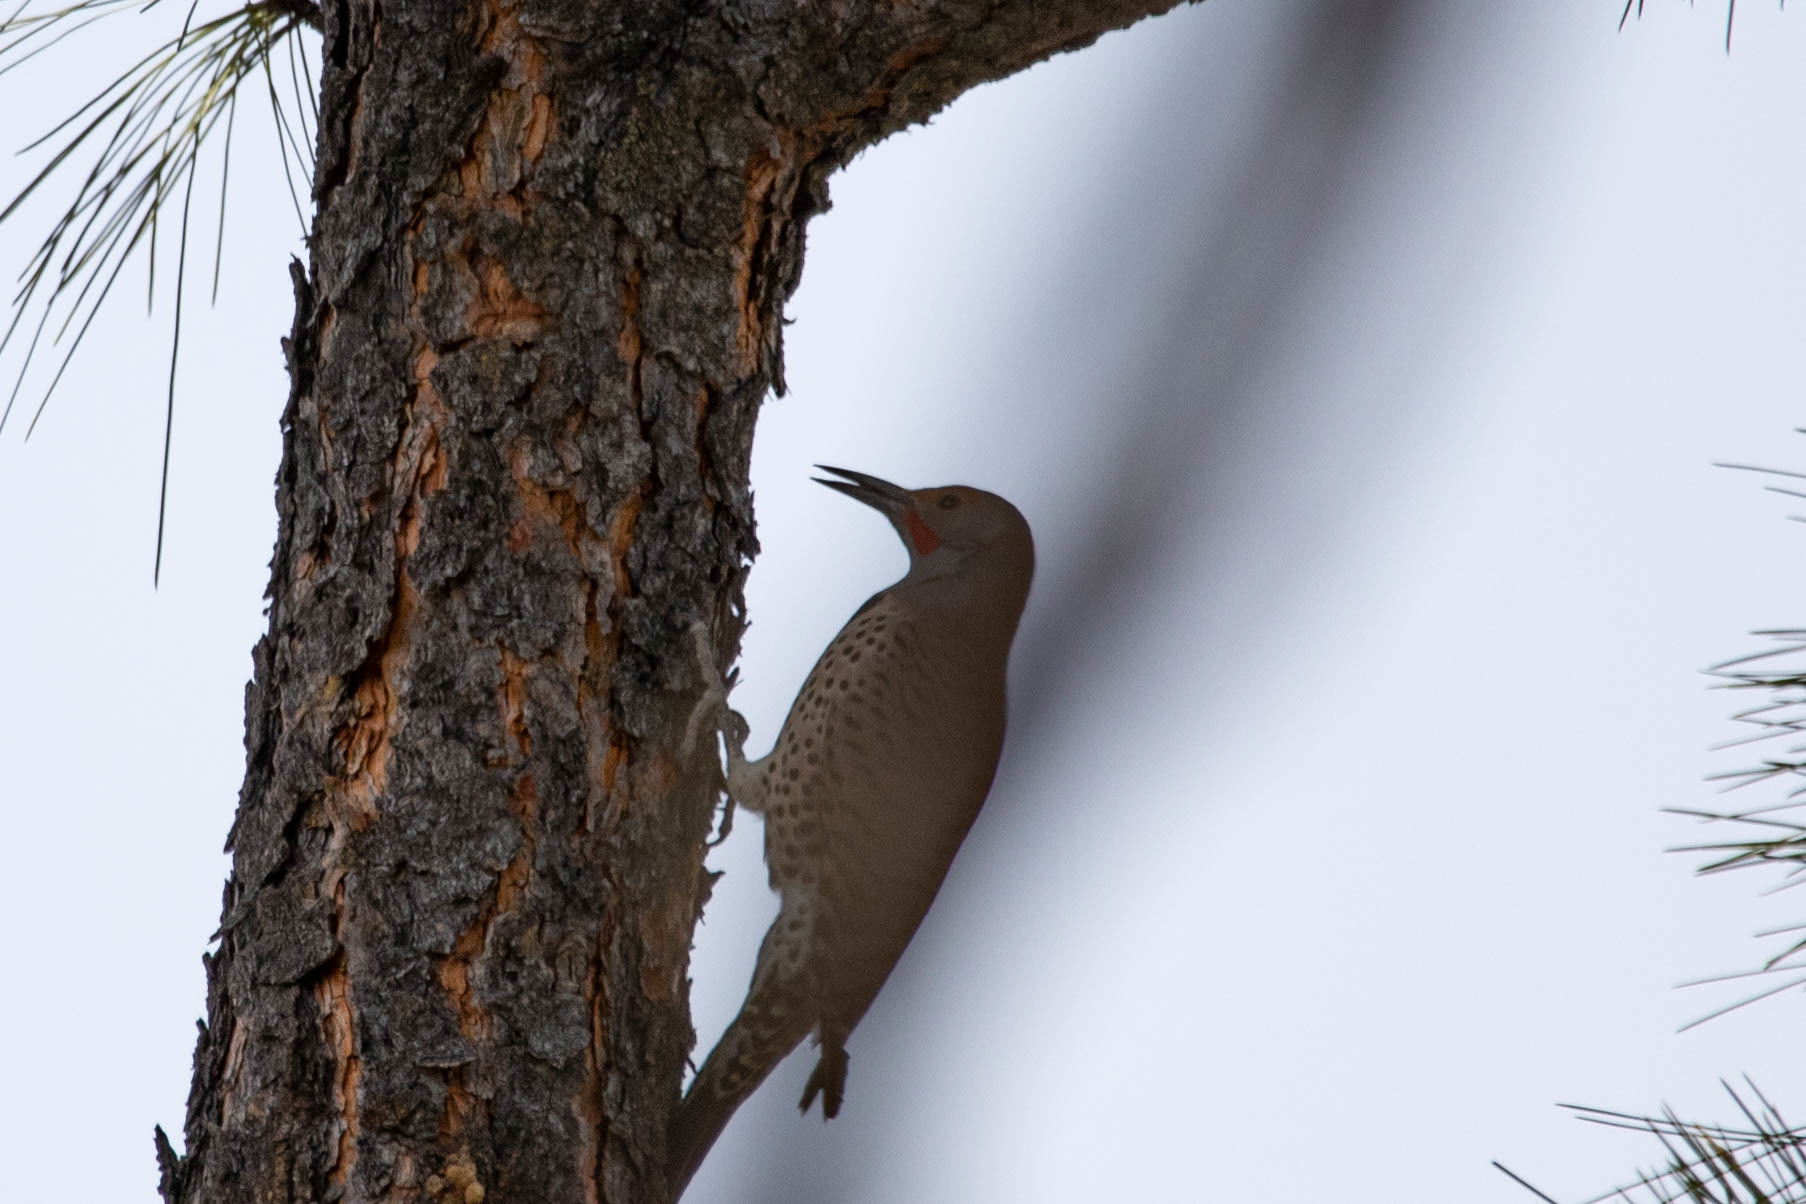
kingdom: Animalia
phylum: Chordata
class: Aves
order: Piciformes
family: Picidae
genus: Colaptes
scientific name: Colaptes auratus
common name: Northern flicker
